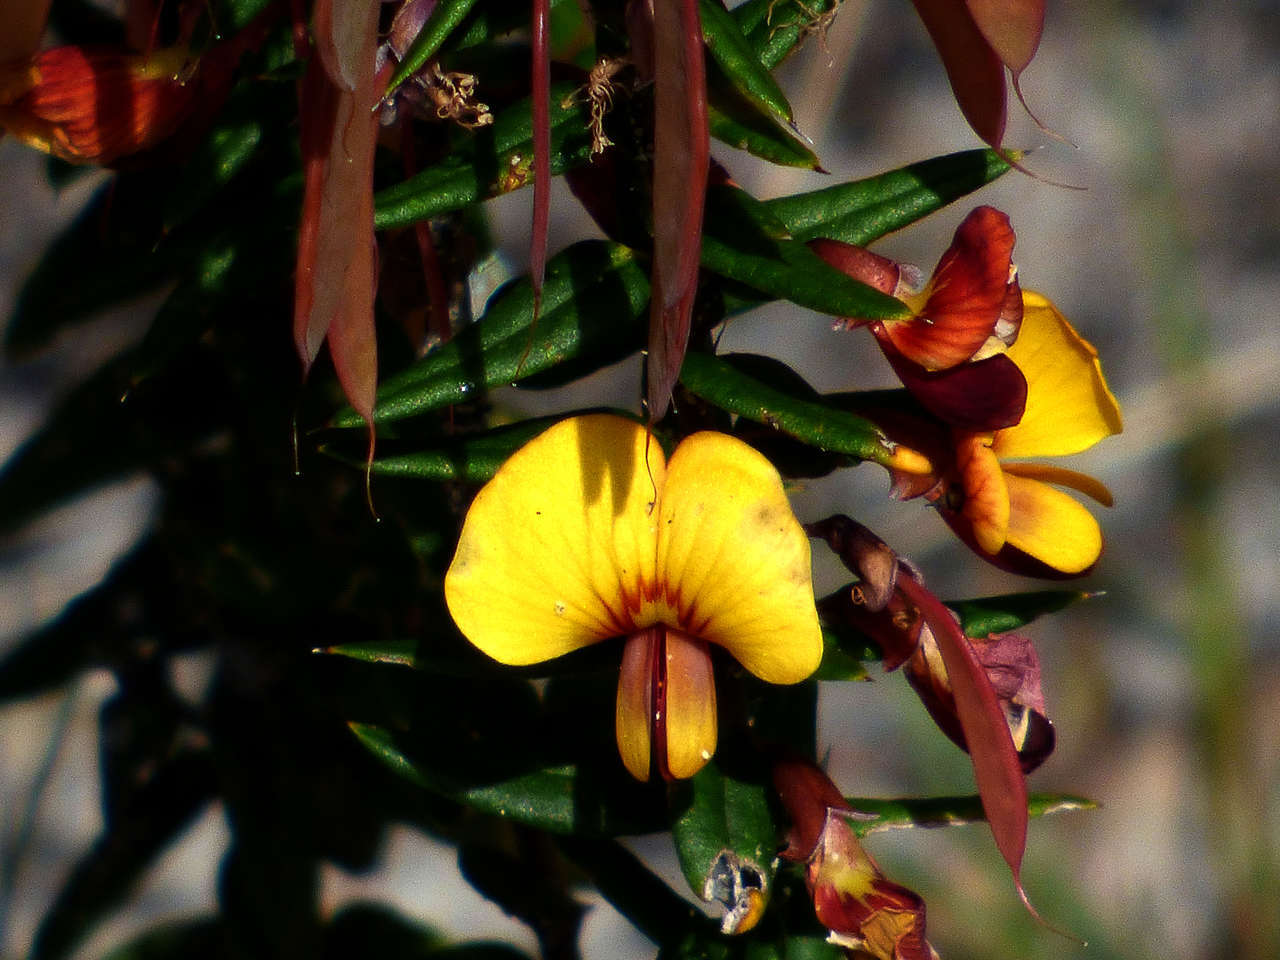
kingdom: Plantae
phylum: Tracheophyta
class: Magnoliopsida
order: Fabales
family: Fabaceae
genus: Bossiaea
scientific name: Bossiaea cinerea
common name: Showy bossiaea
